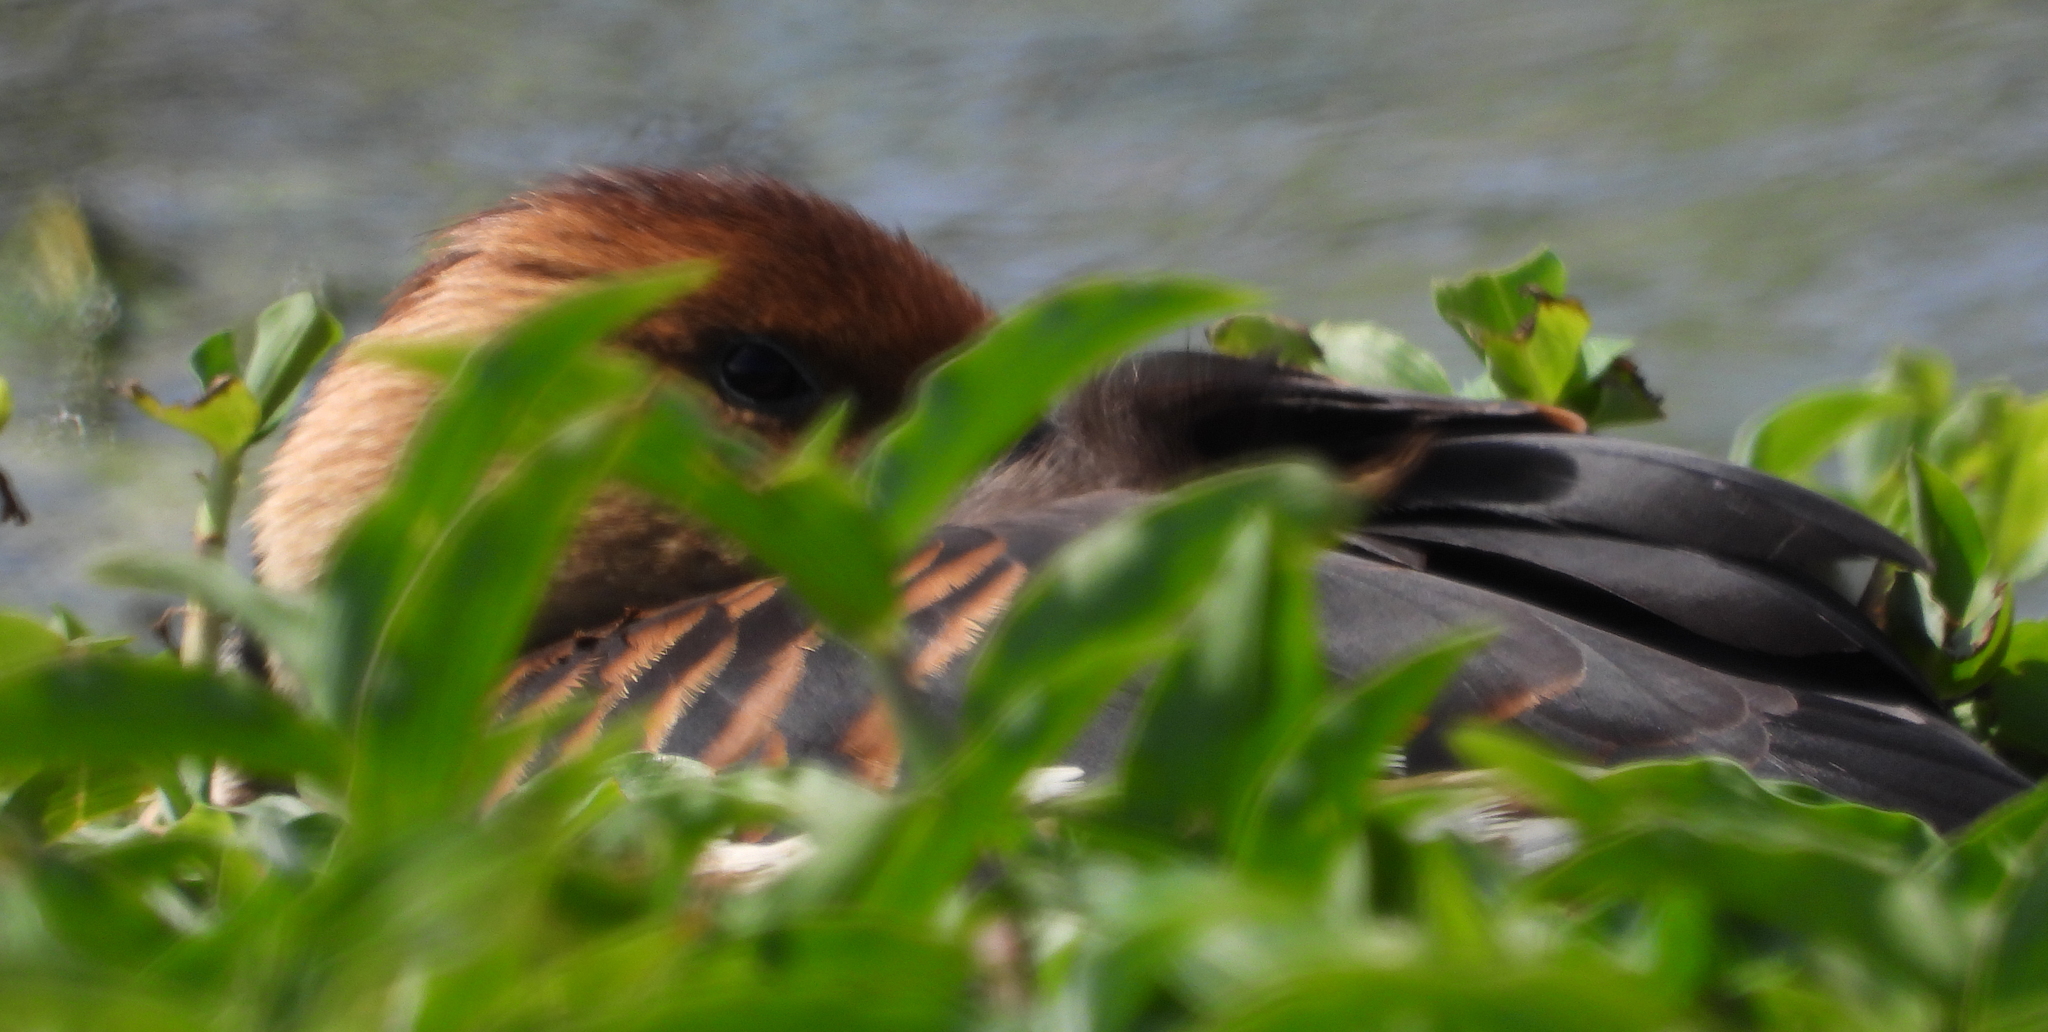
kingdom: Animalia
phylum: Chordata
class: Aves
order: Anseriformes
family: Anatidae
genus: Dendrocygna
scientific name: Dendrocygna bicolor
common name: Fulvous whistling duck
